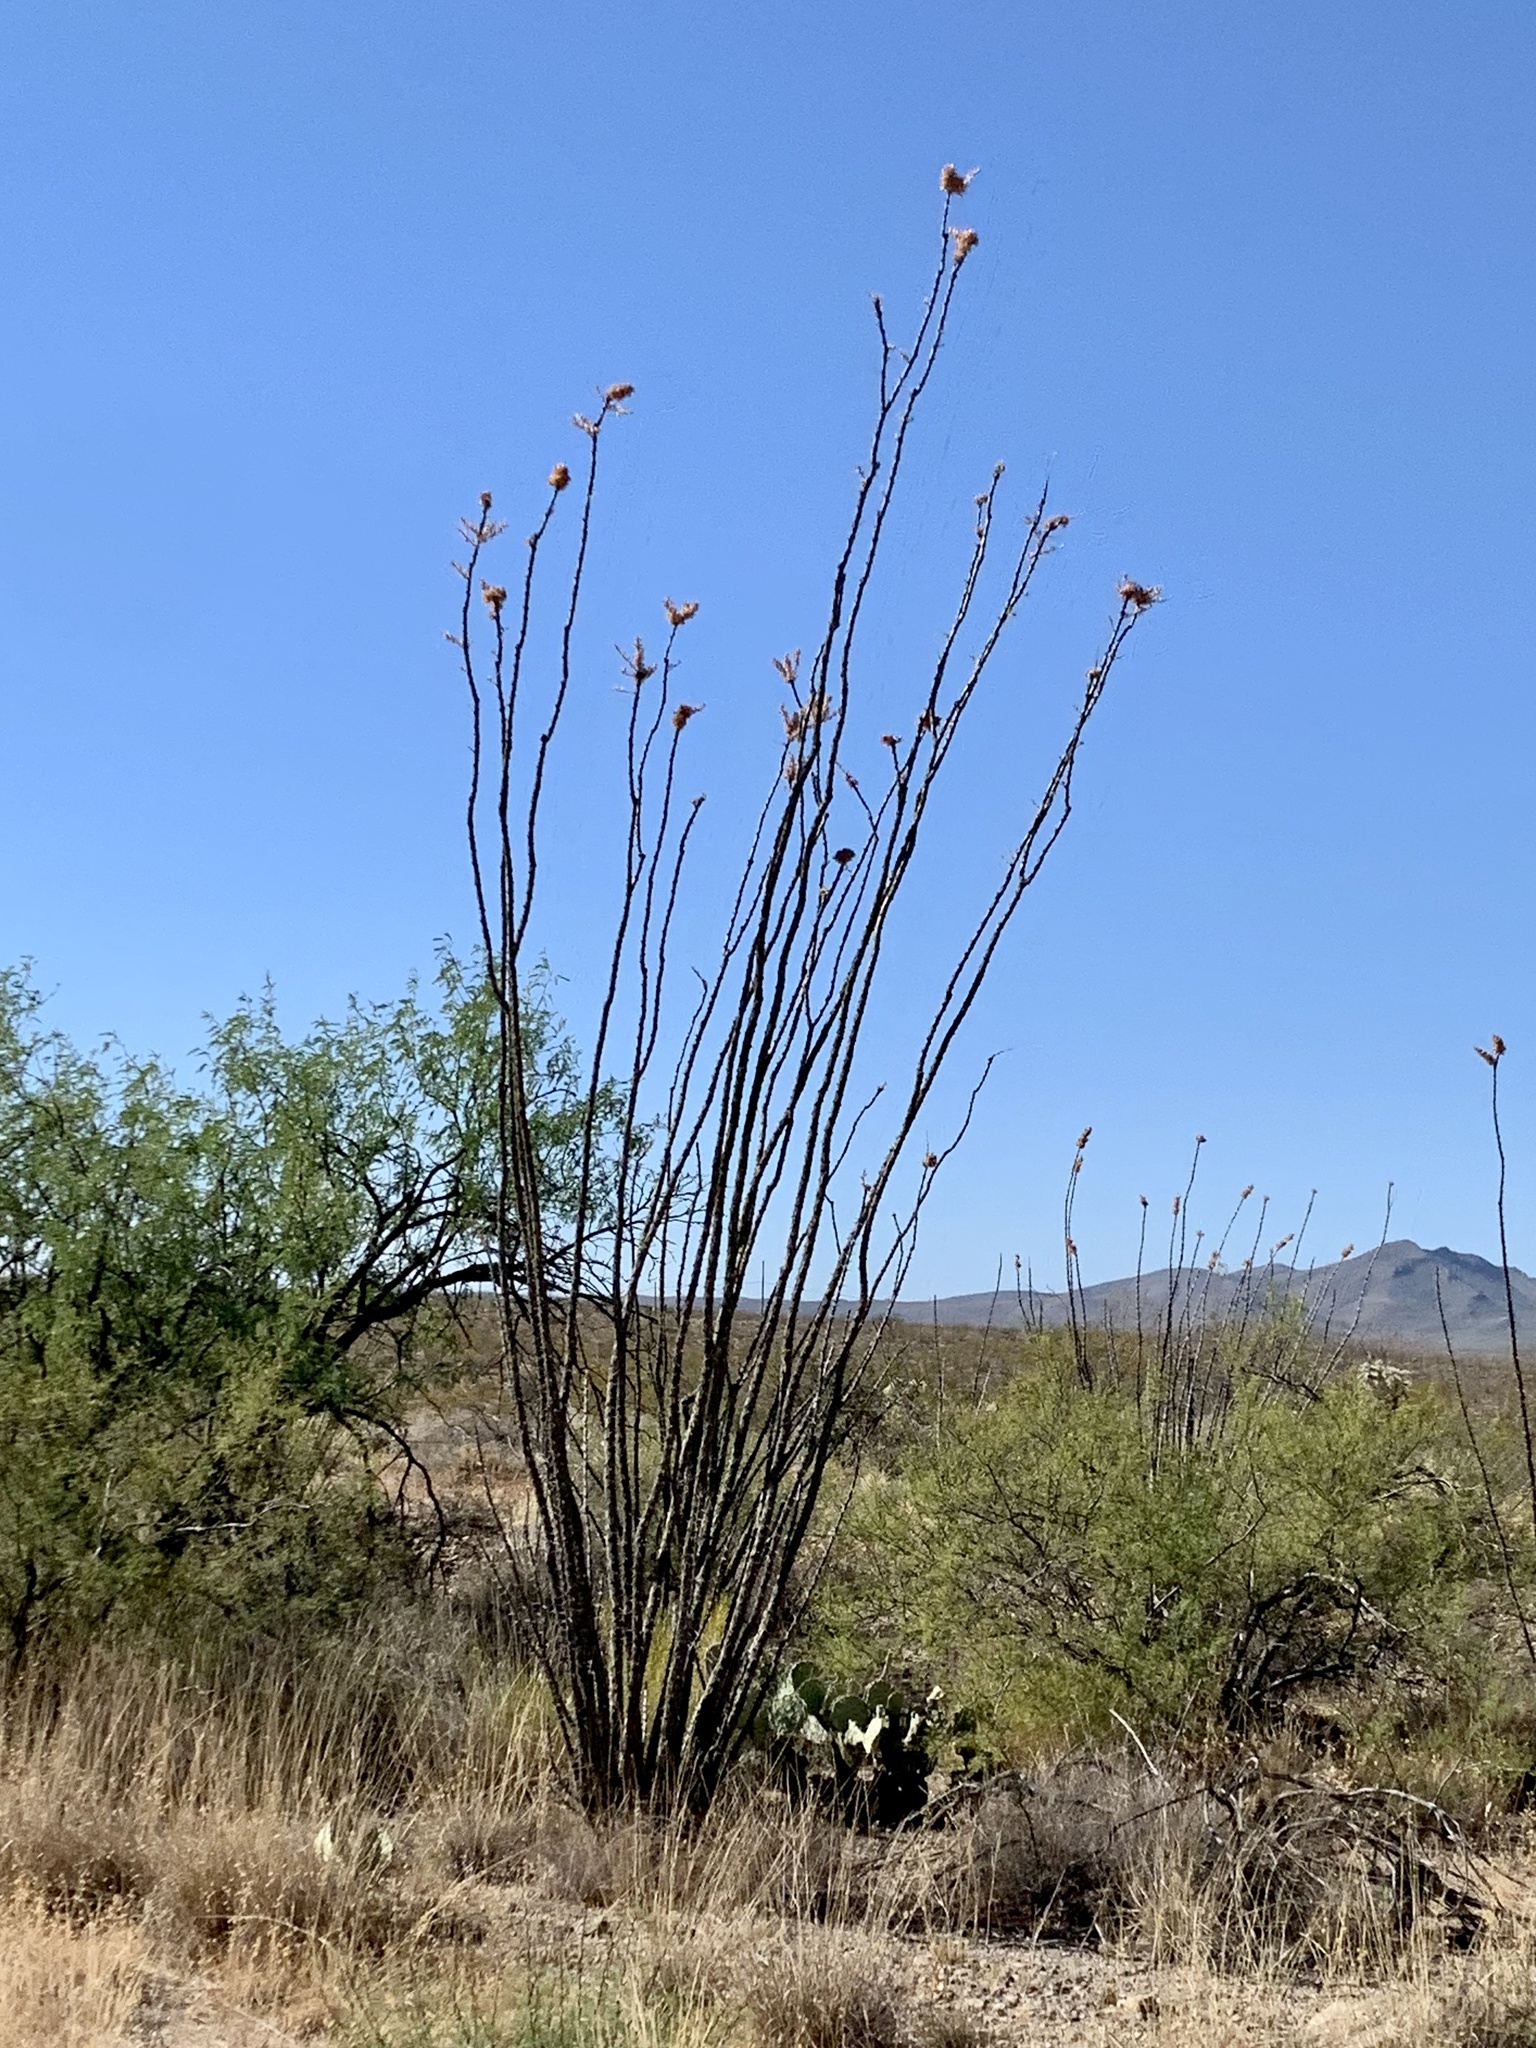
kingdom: Plantae
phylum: Tracheophyta
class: Magnoliopsida
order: Ericales
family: Fouquieriaceae
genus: Fouquieria
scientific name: Fouquieria splendens
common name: Vine-cactus
